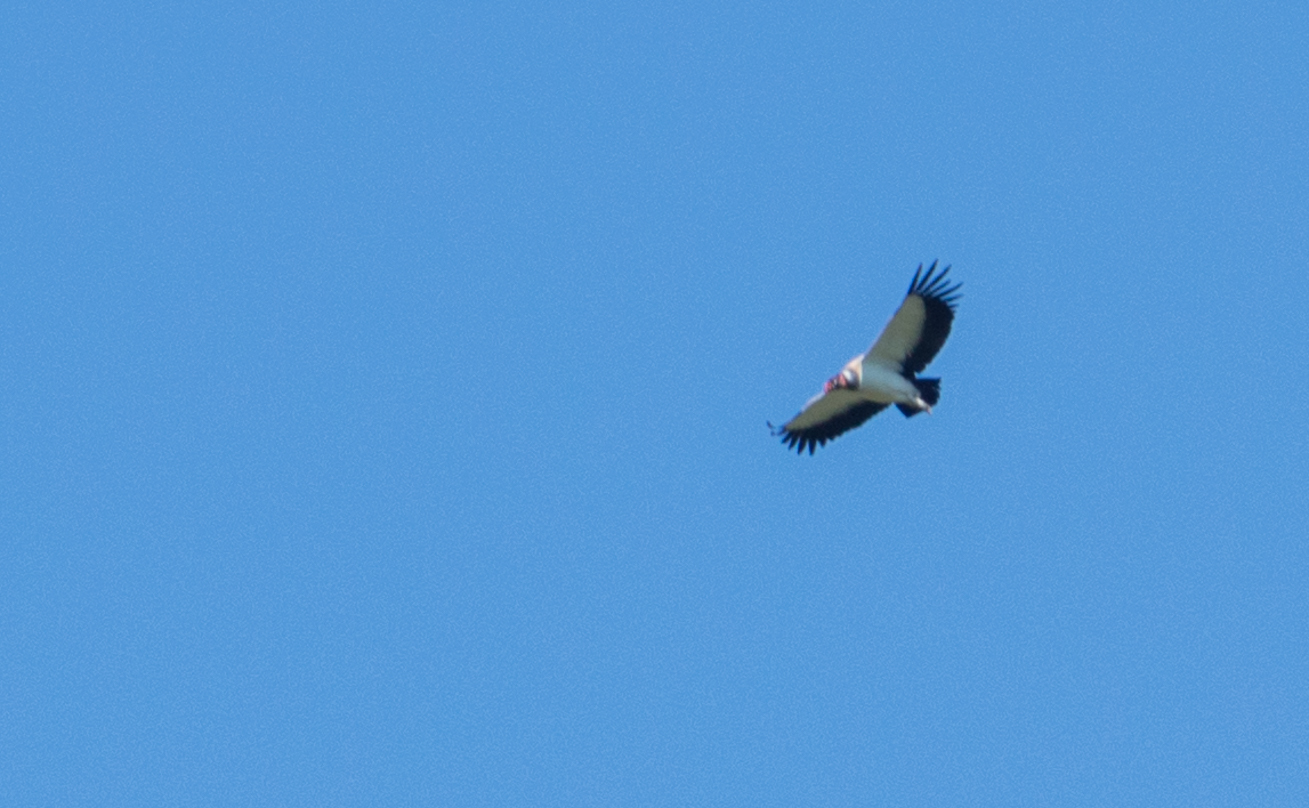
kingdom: Animalia
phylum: Chordata
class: Aves
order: Accipitriformes
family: Cathartidae
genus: Sarcoramphus
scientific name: Sarcoramphus papa
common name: King vulture
